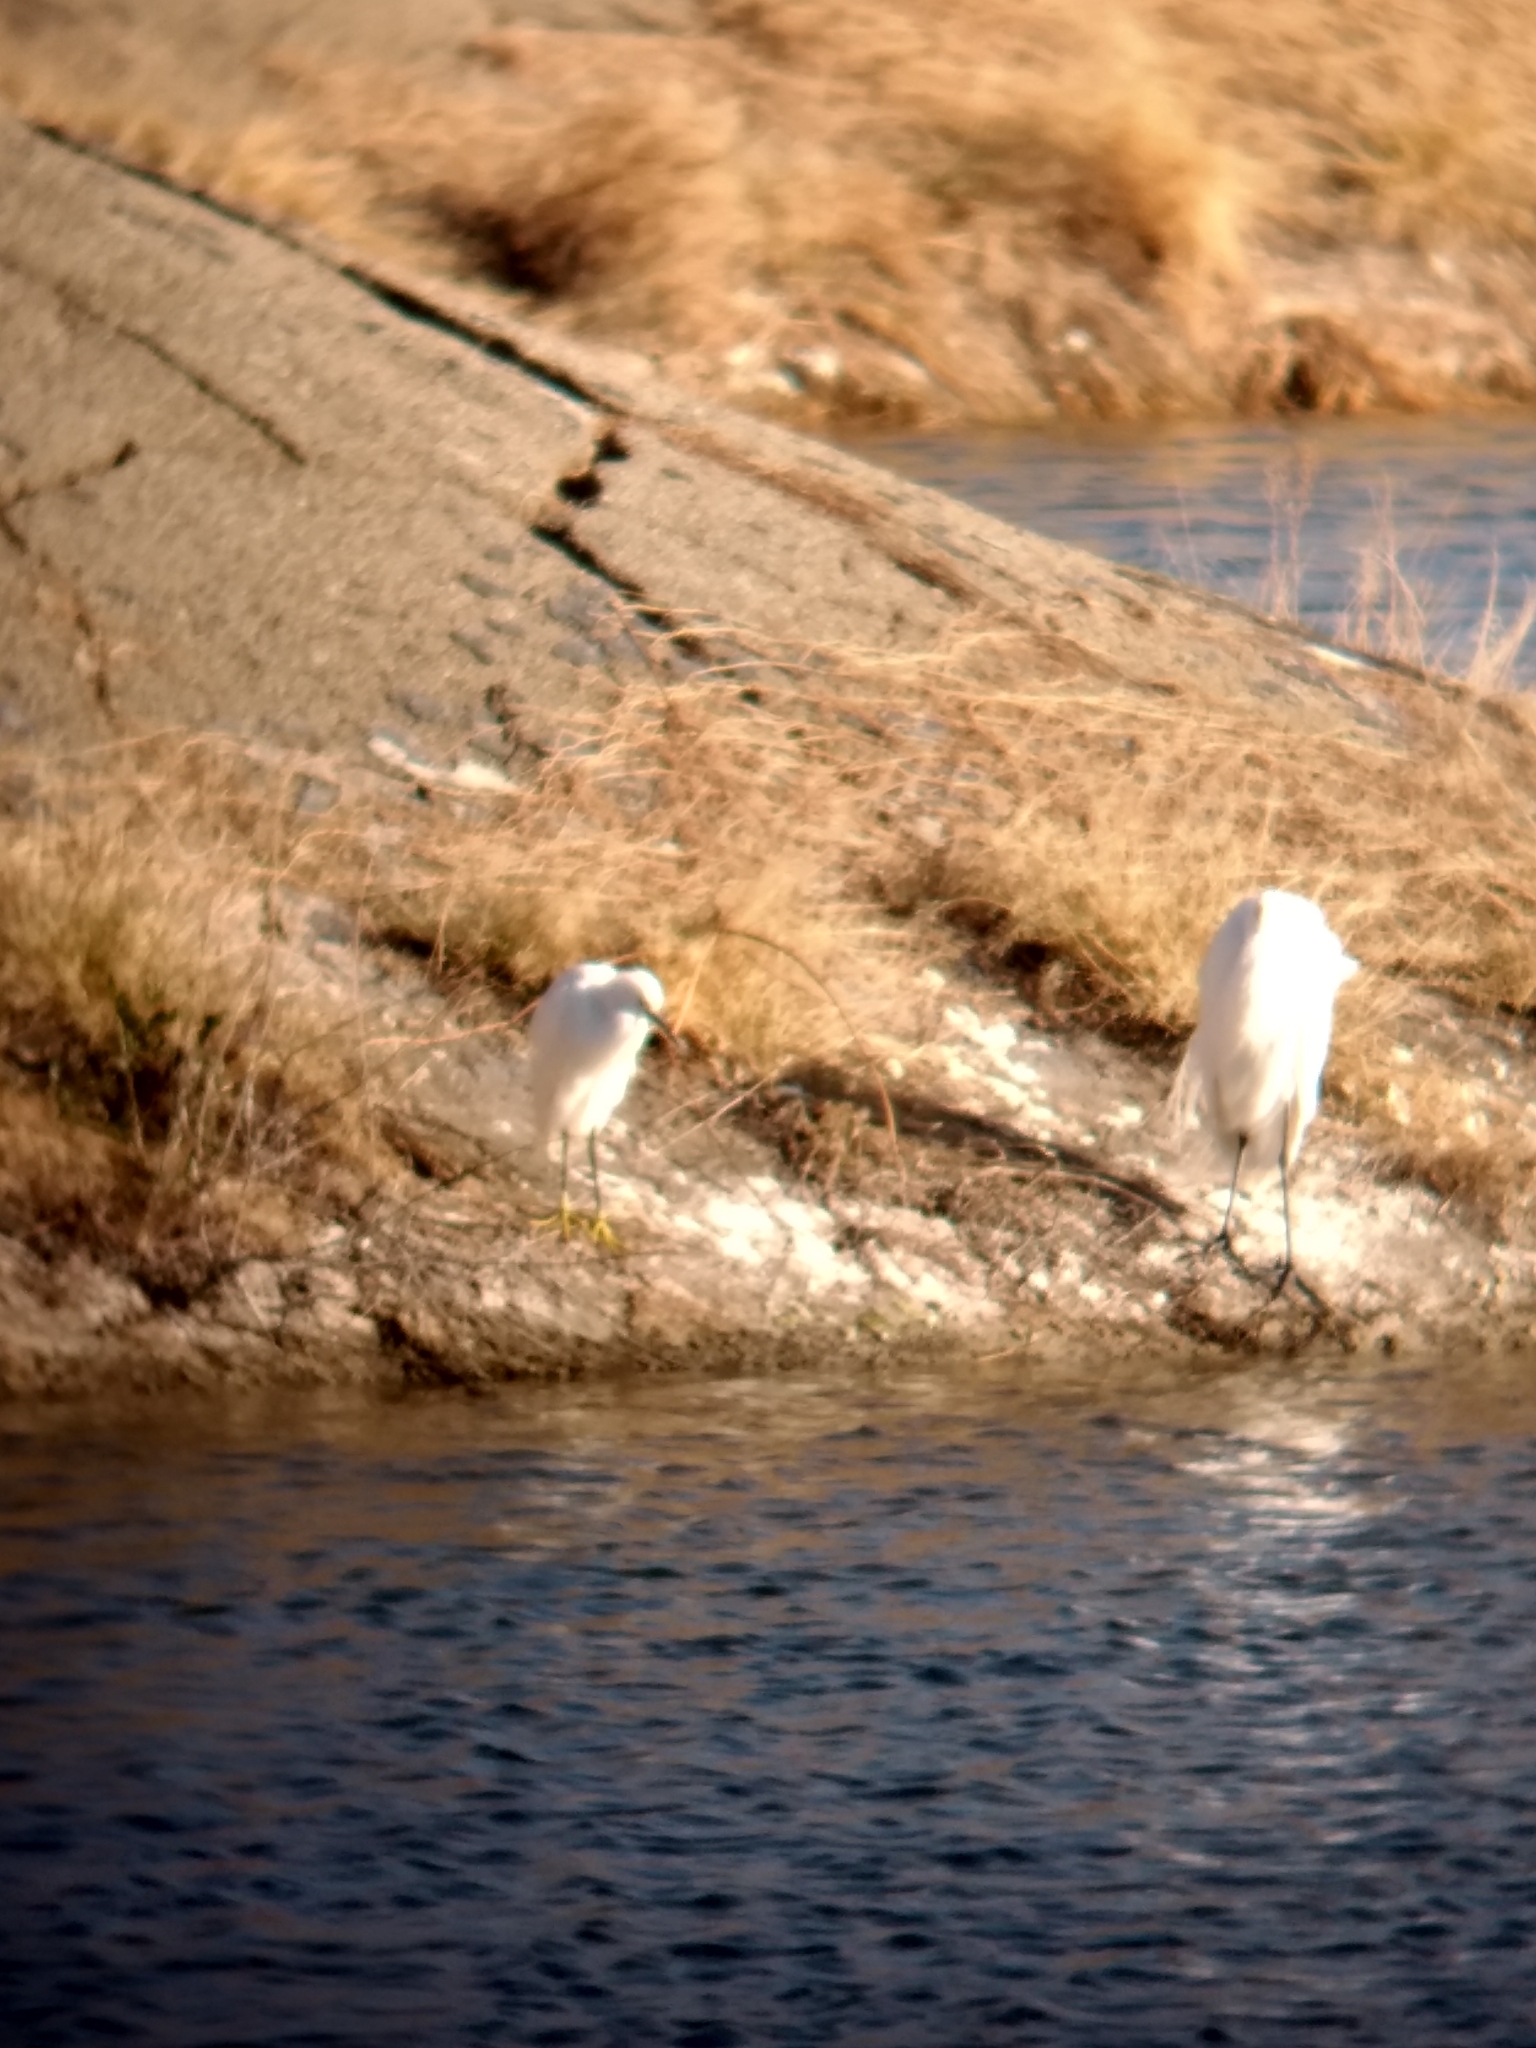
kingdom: Animalia
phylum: Chordata
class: Aves
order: Pelecaniformes
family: Ardeidae
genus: Egretta
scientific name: Egretta thula
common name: Snowy egret
